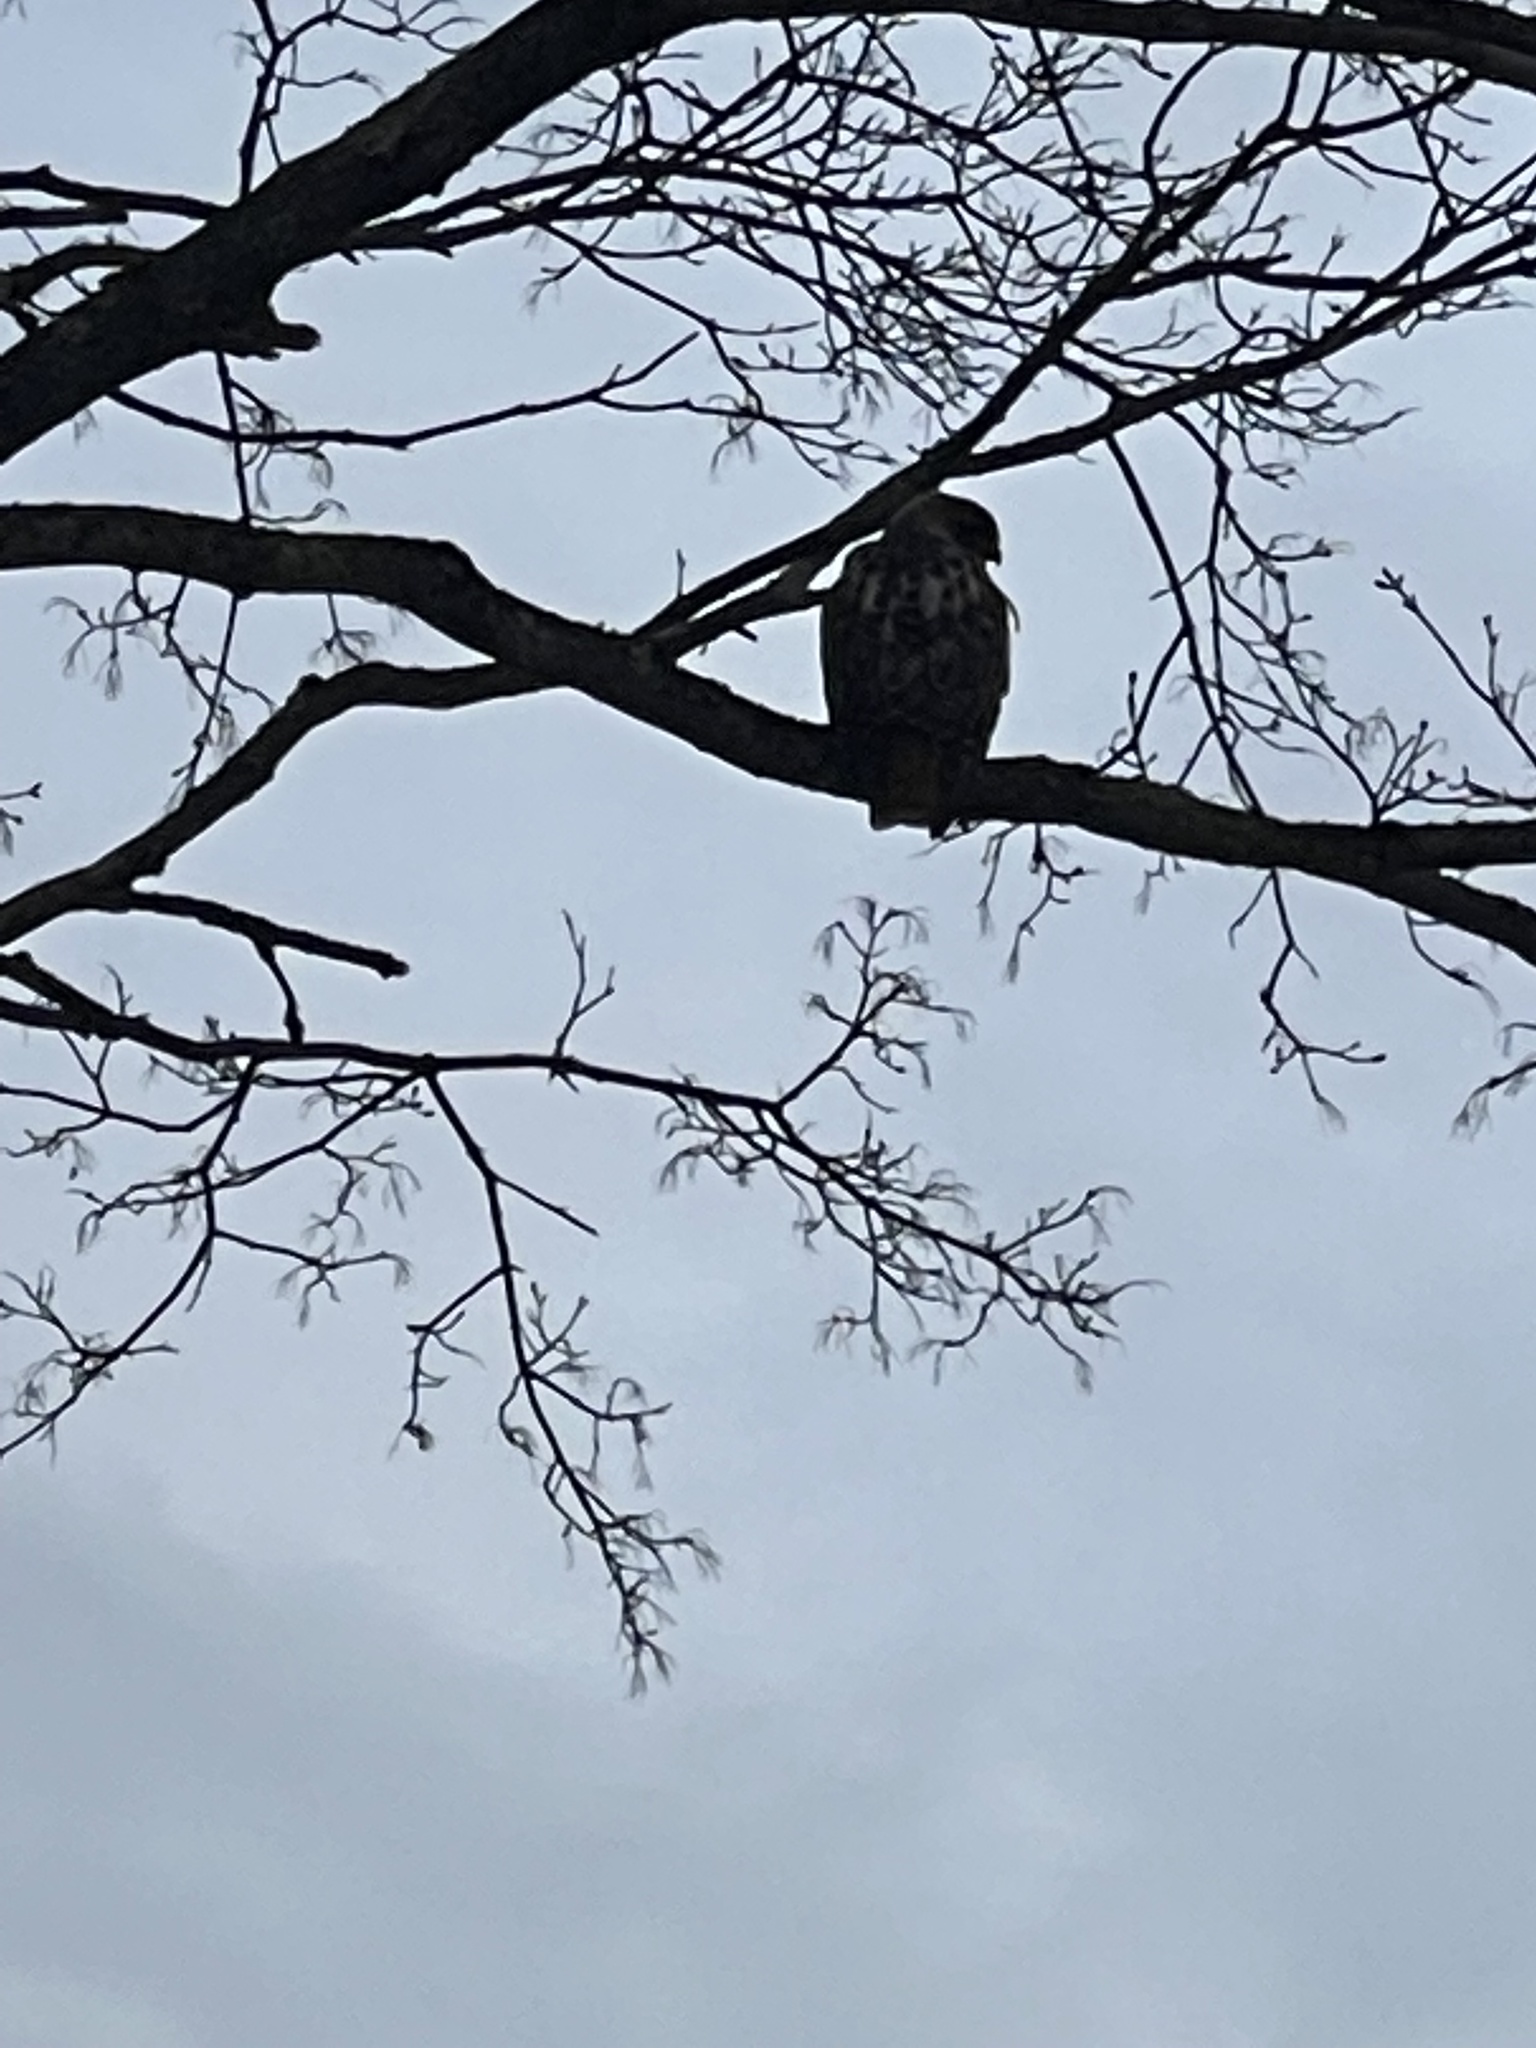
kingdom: Animalia
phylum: Chordata
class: Aves
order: Accipitriformes
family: Accipitridae
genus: Buteo
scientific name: Buteo jamaicensis
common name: Red-tailed hawk
